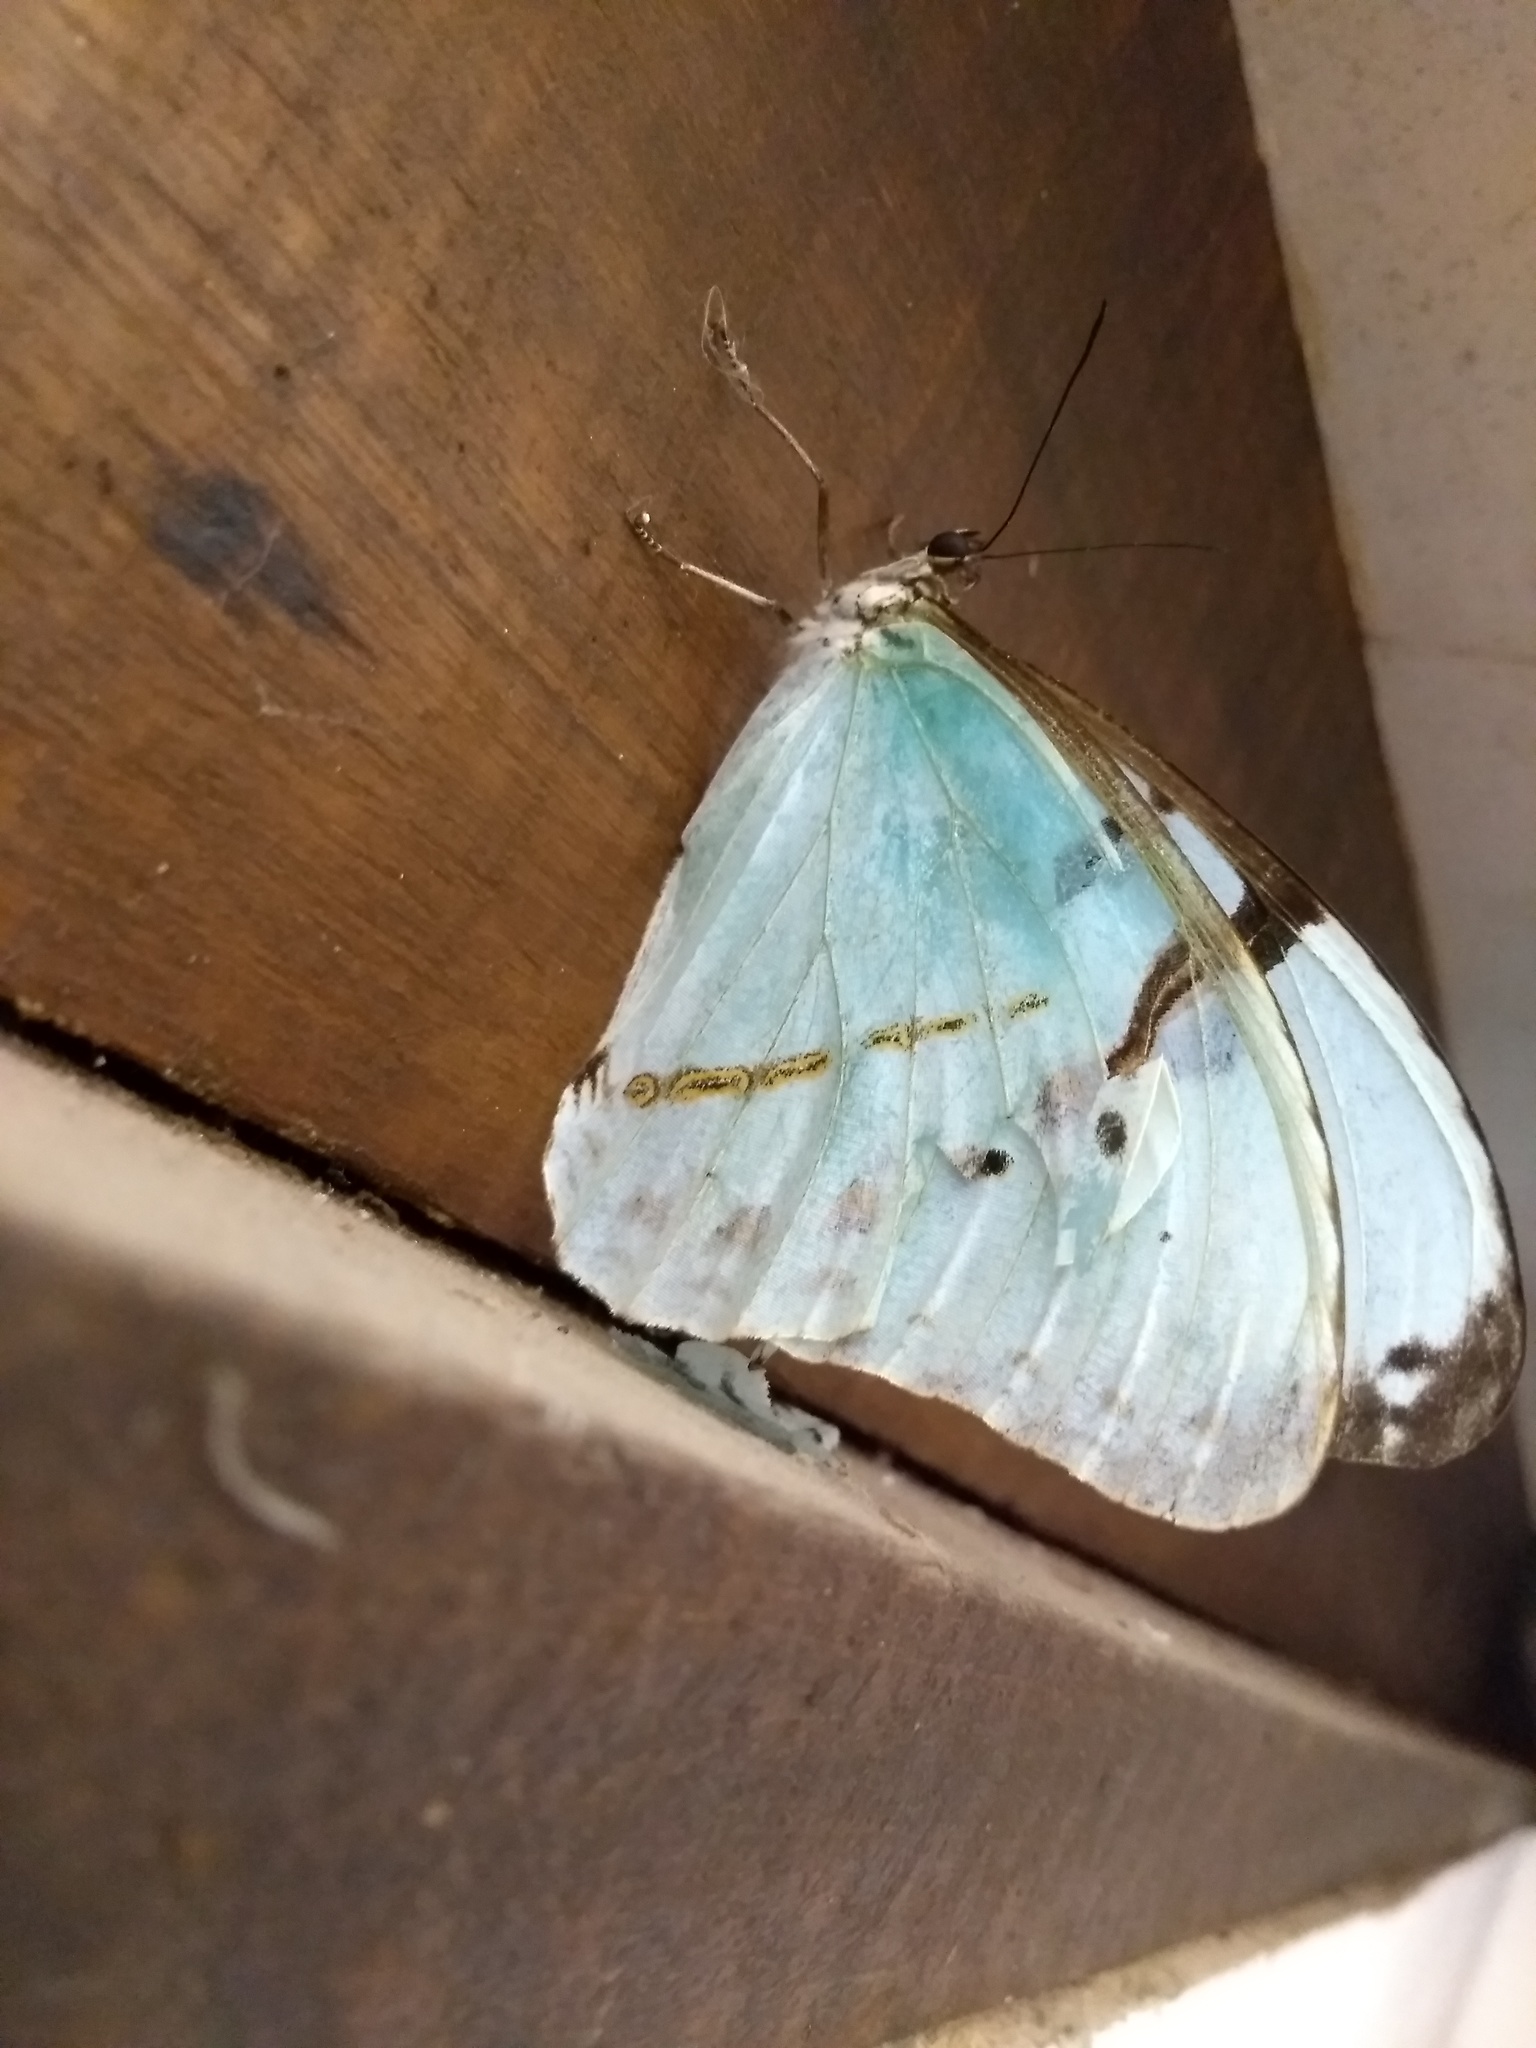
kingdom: Animalia
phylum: Arthropoda
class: Insecta
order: Lepidoptera
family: Nymphalidae
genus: Morpho
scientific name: Morpho epistrophus
